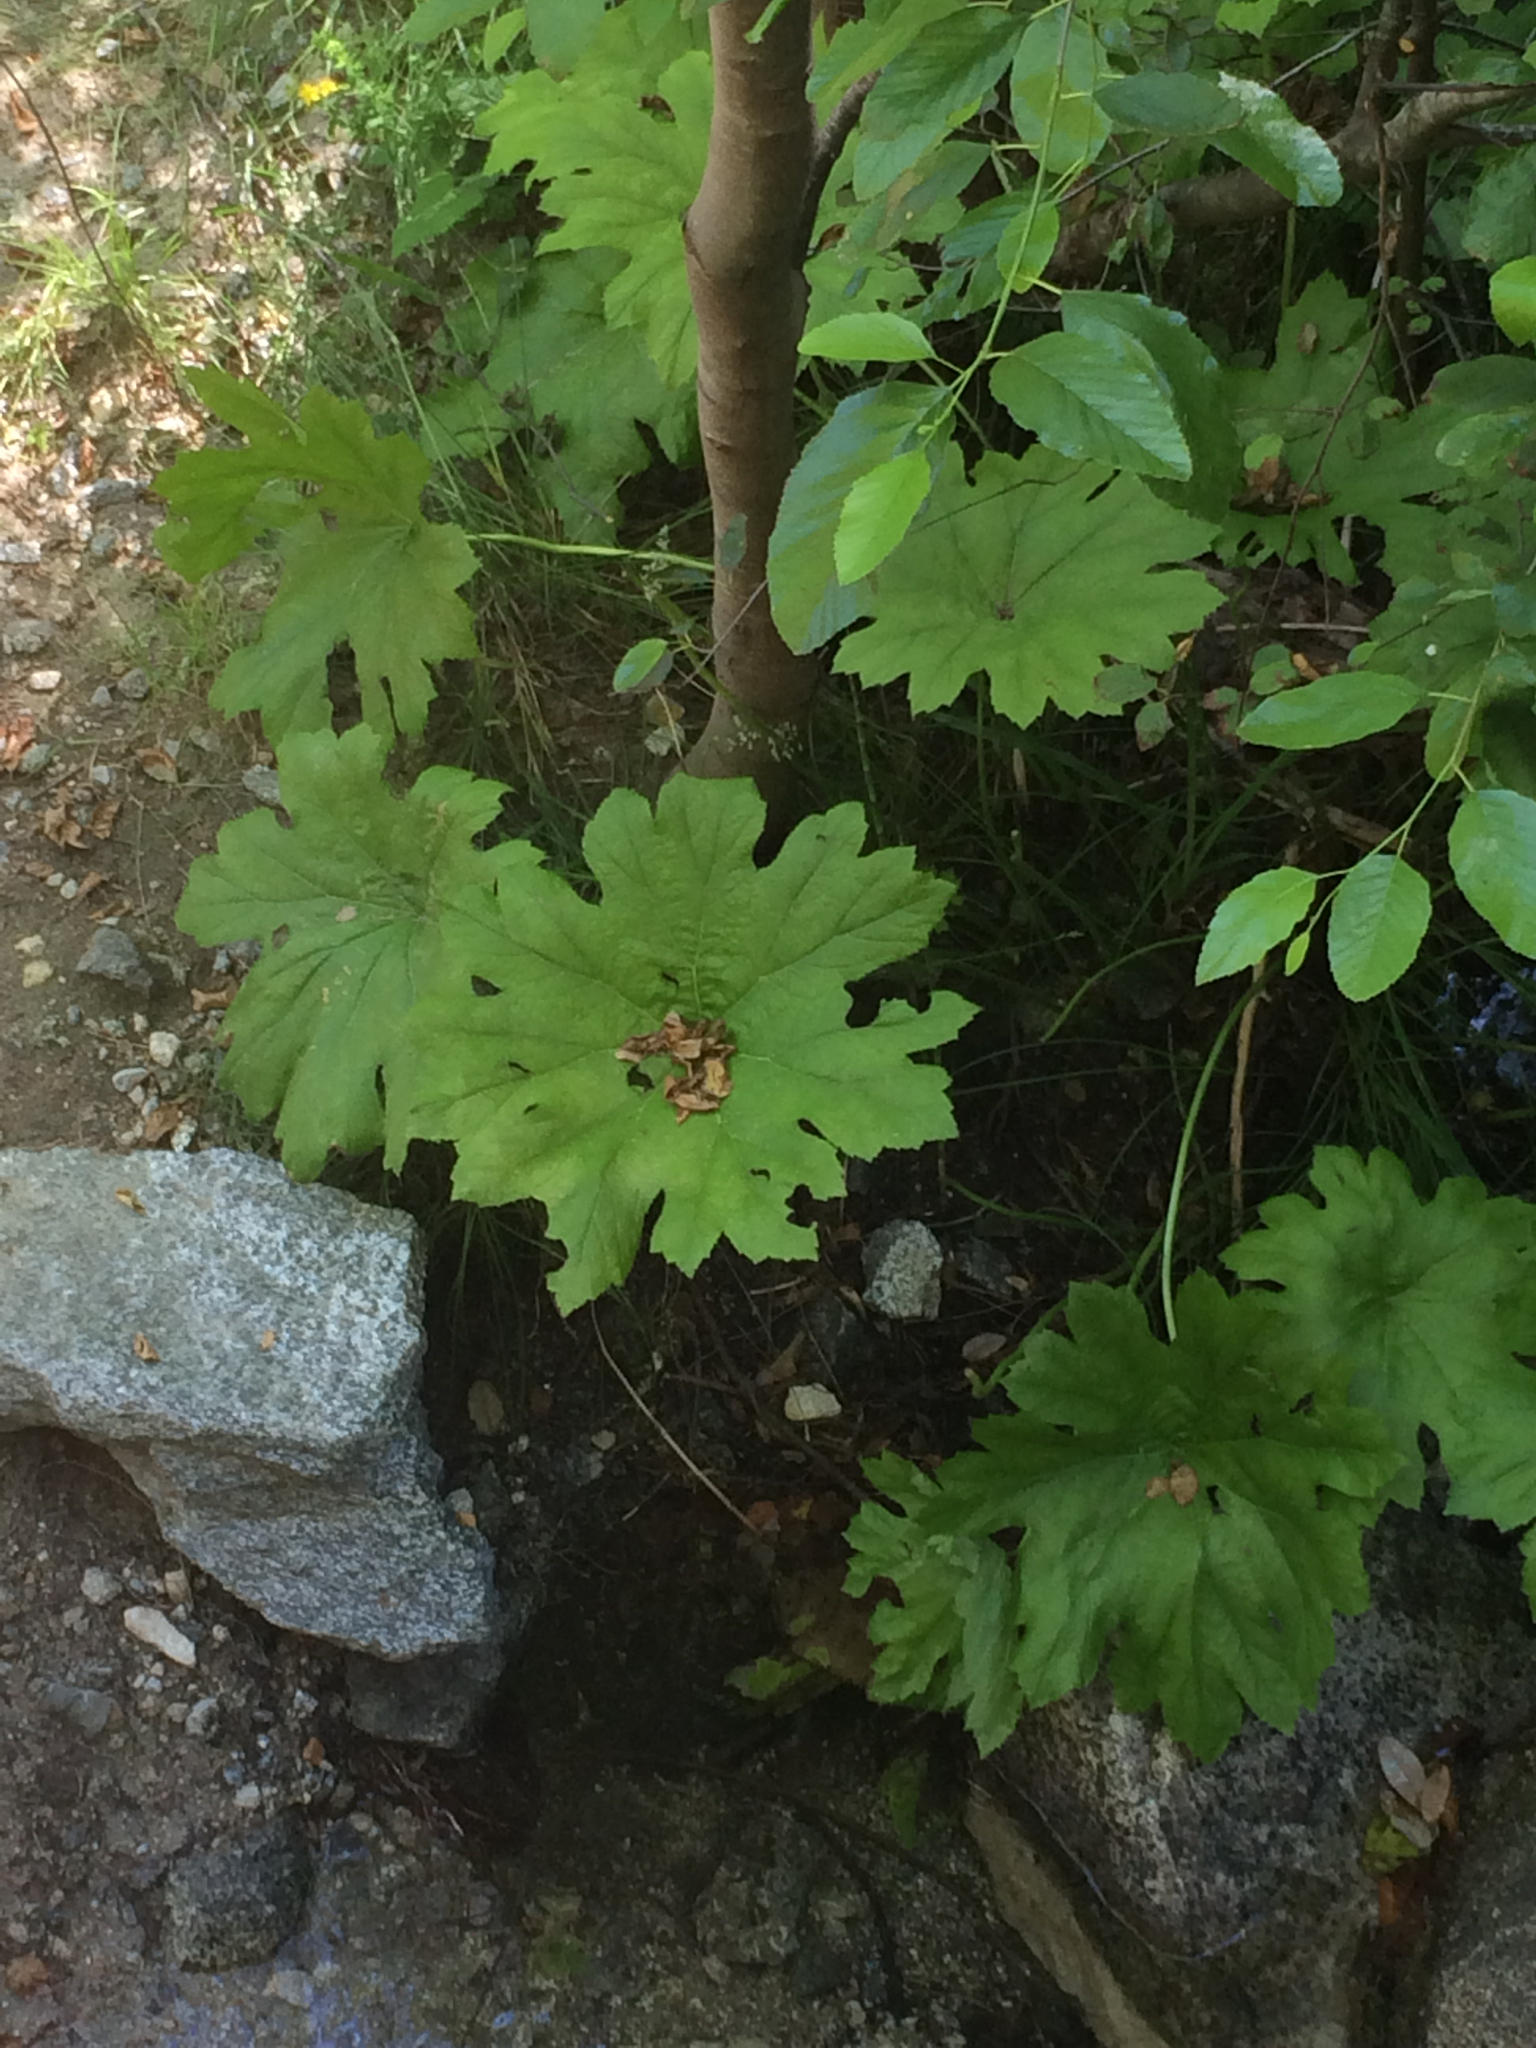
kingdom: Plantae
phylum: Tracheophyta
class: Magnoliopsida
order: Saxifragales
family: Saxifragaceae
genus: Darmera
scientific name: Darmera peltata
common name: Indian-rhubarb
